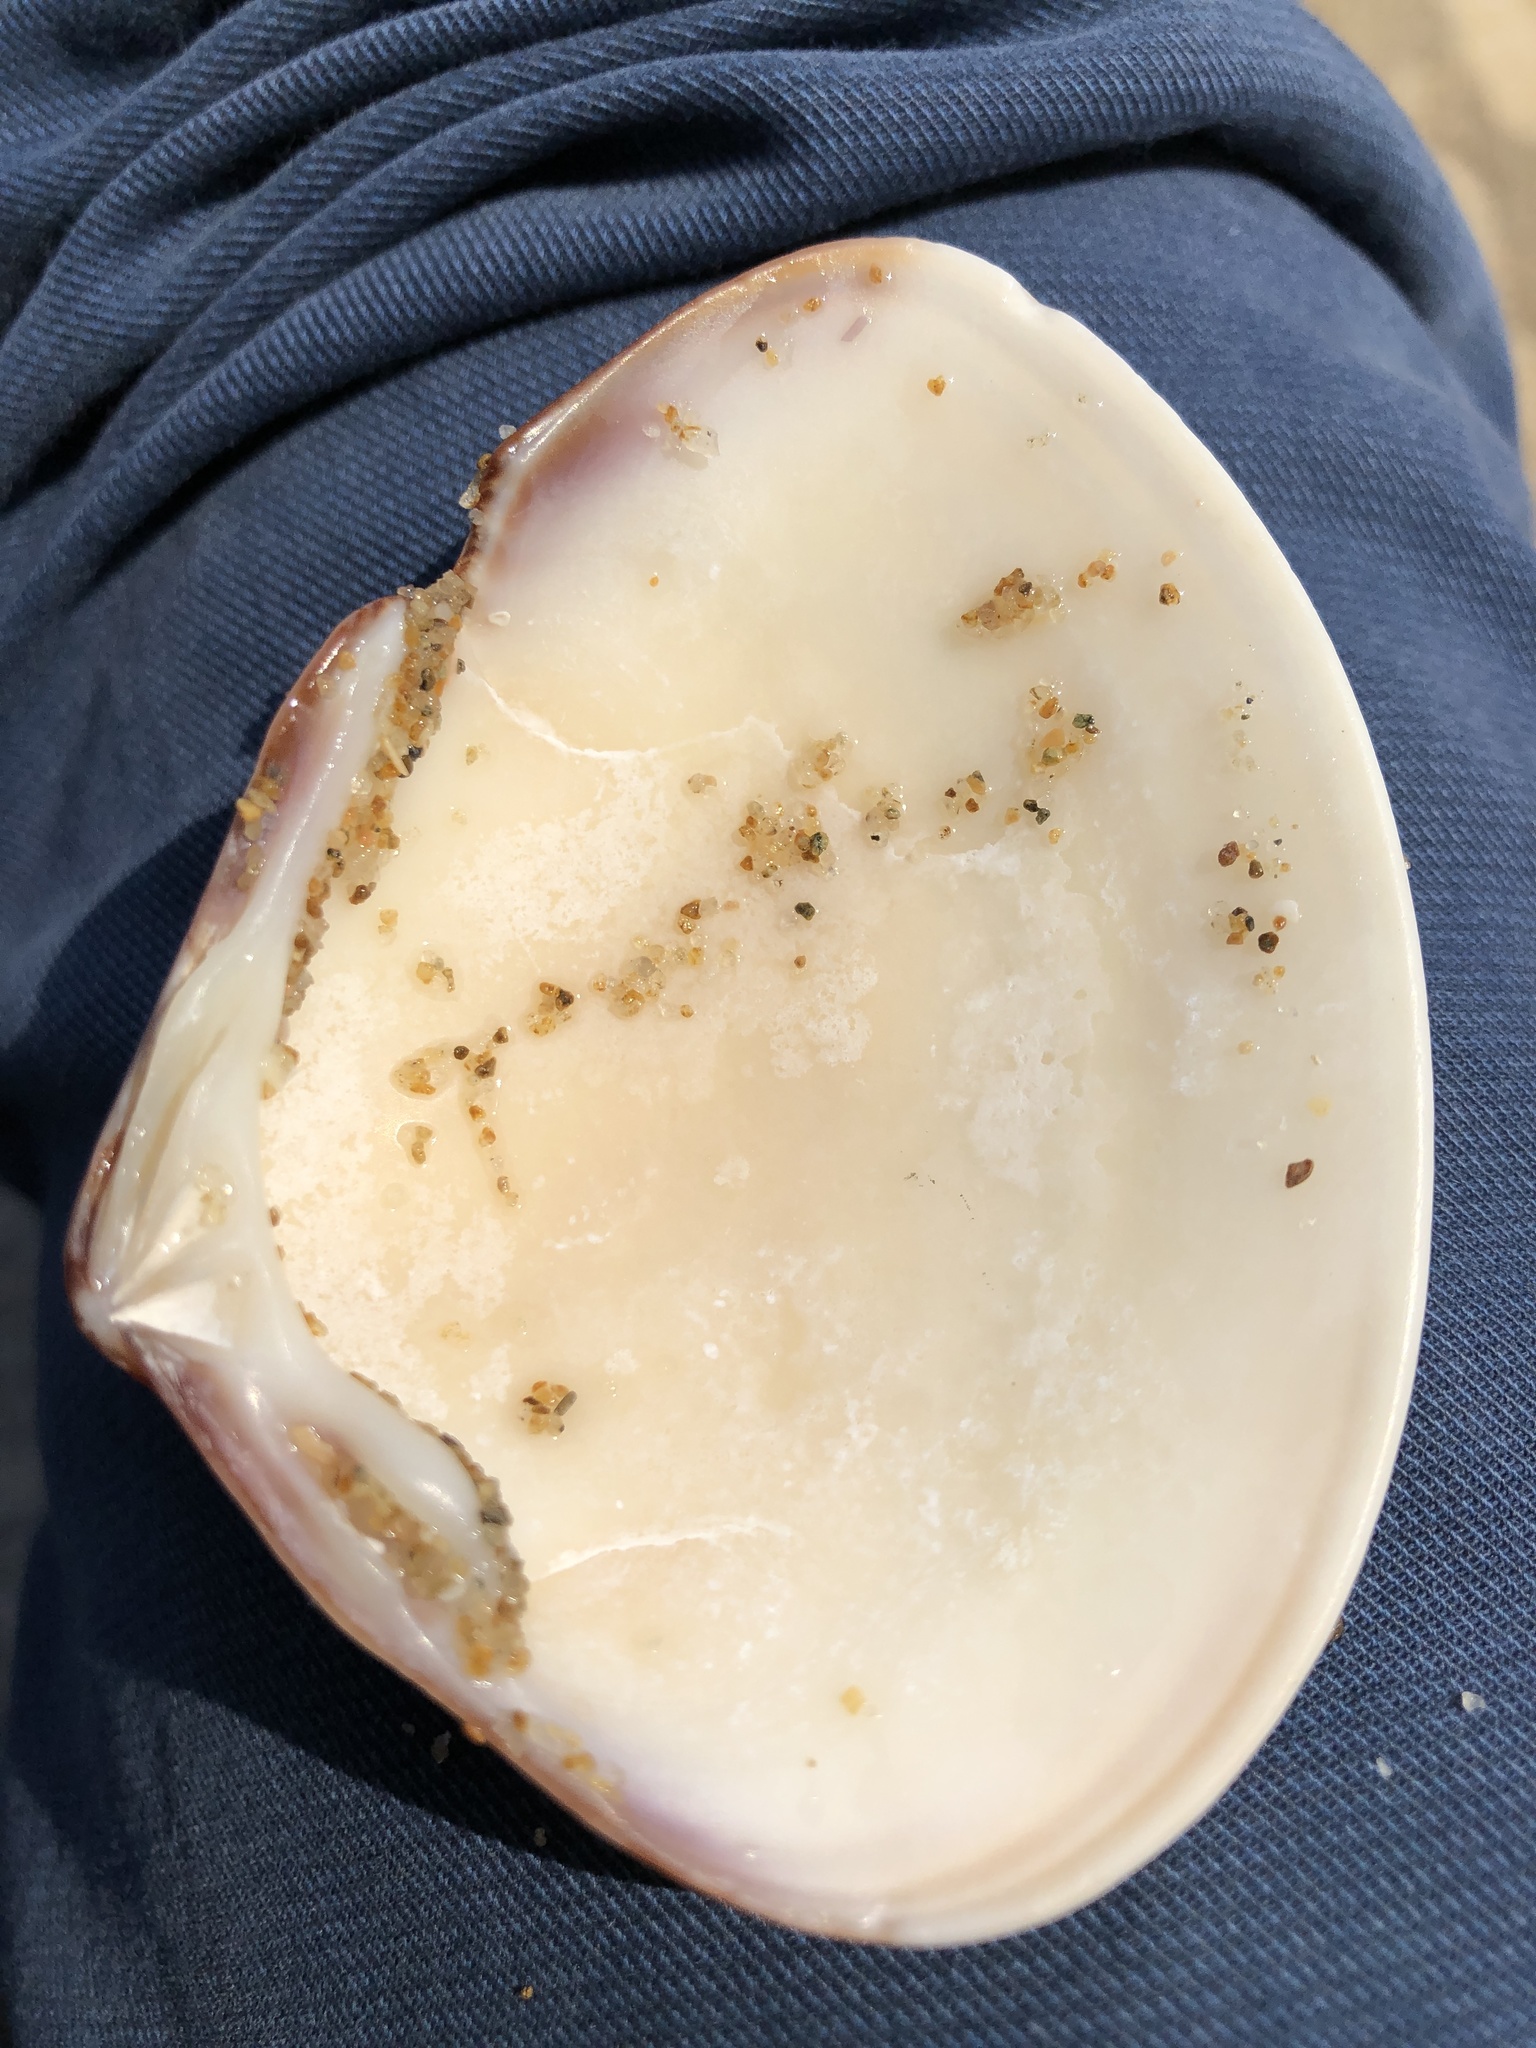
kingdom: Animalia
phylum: Mollusca
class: Bivalvia
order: Venerida
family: Veneridae
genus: Meretrix
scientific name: Meretrix lamarckii
